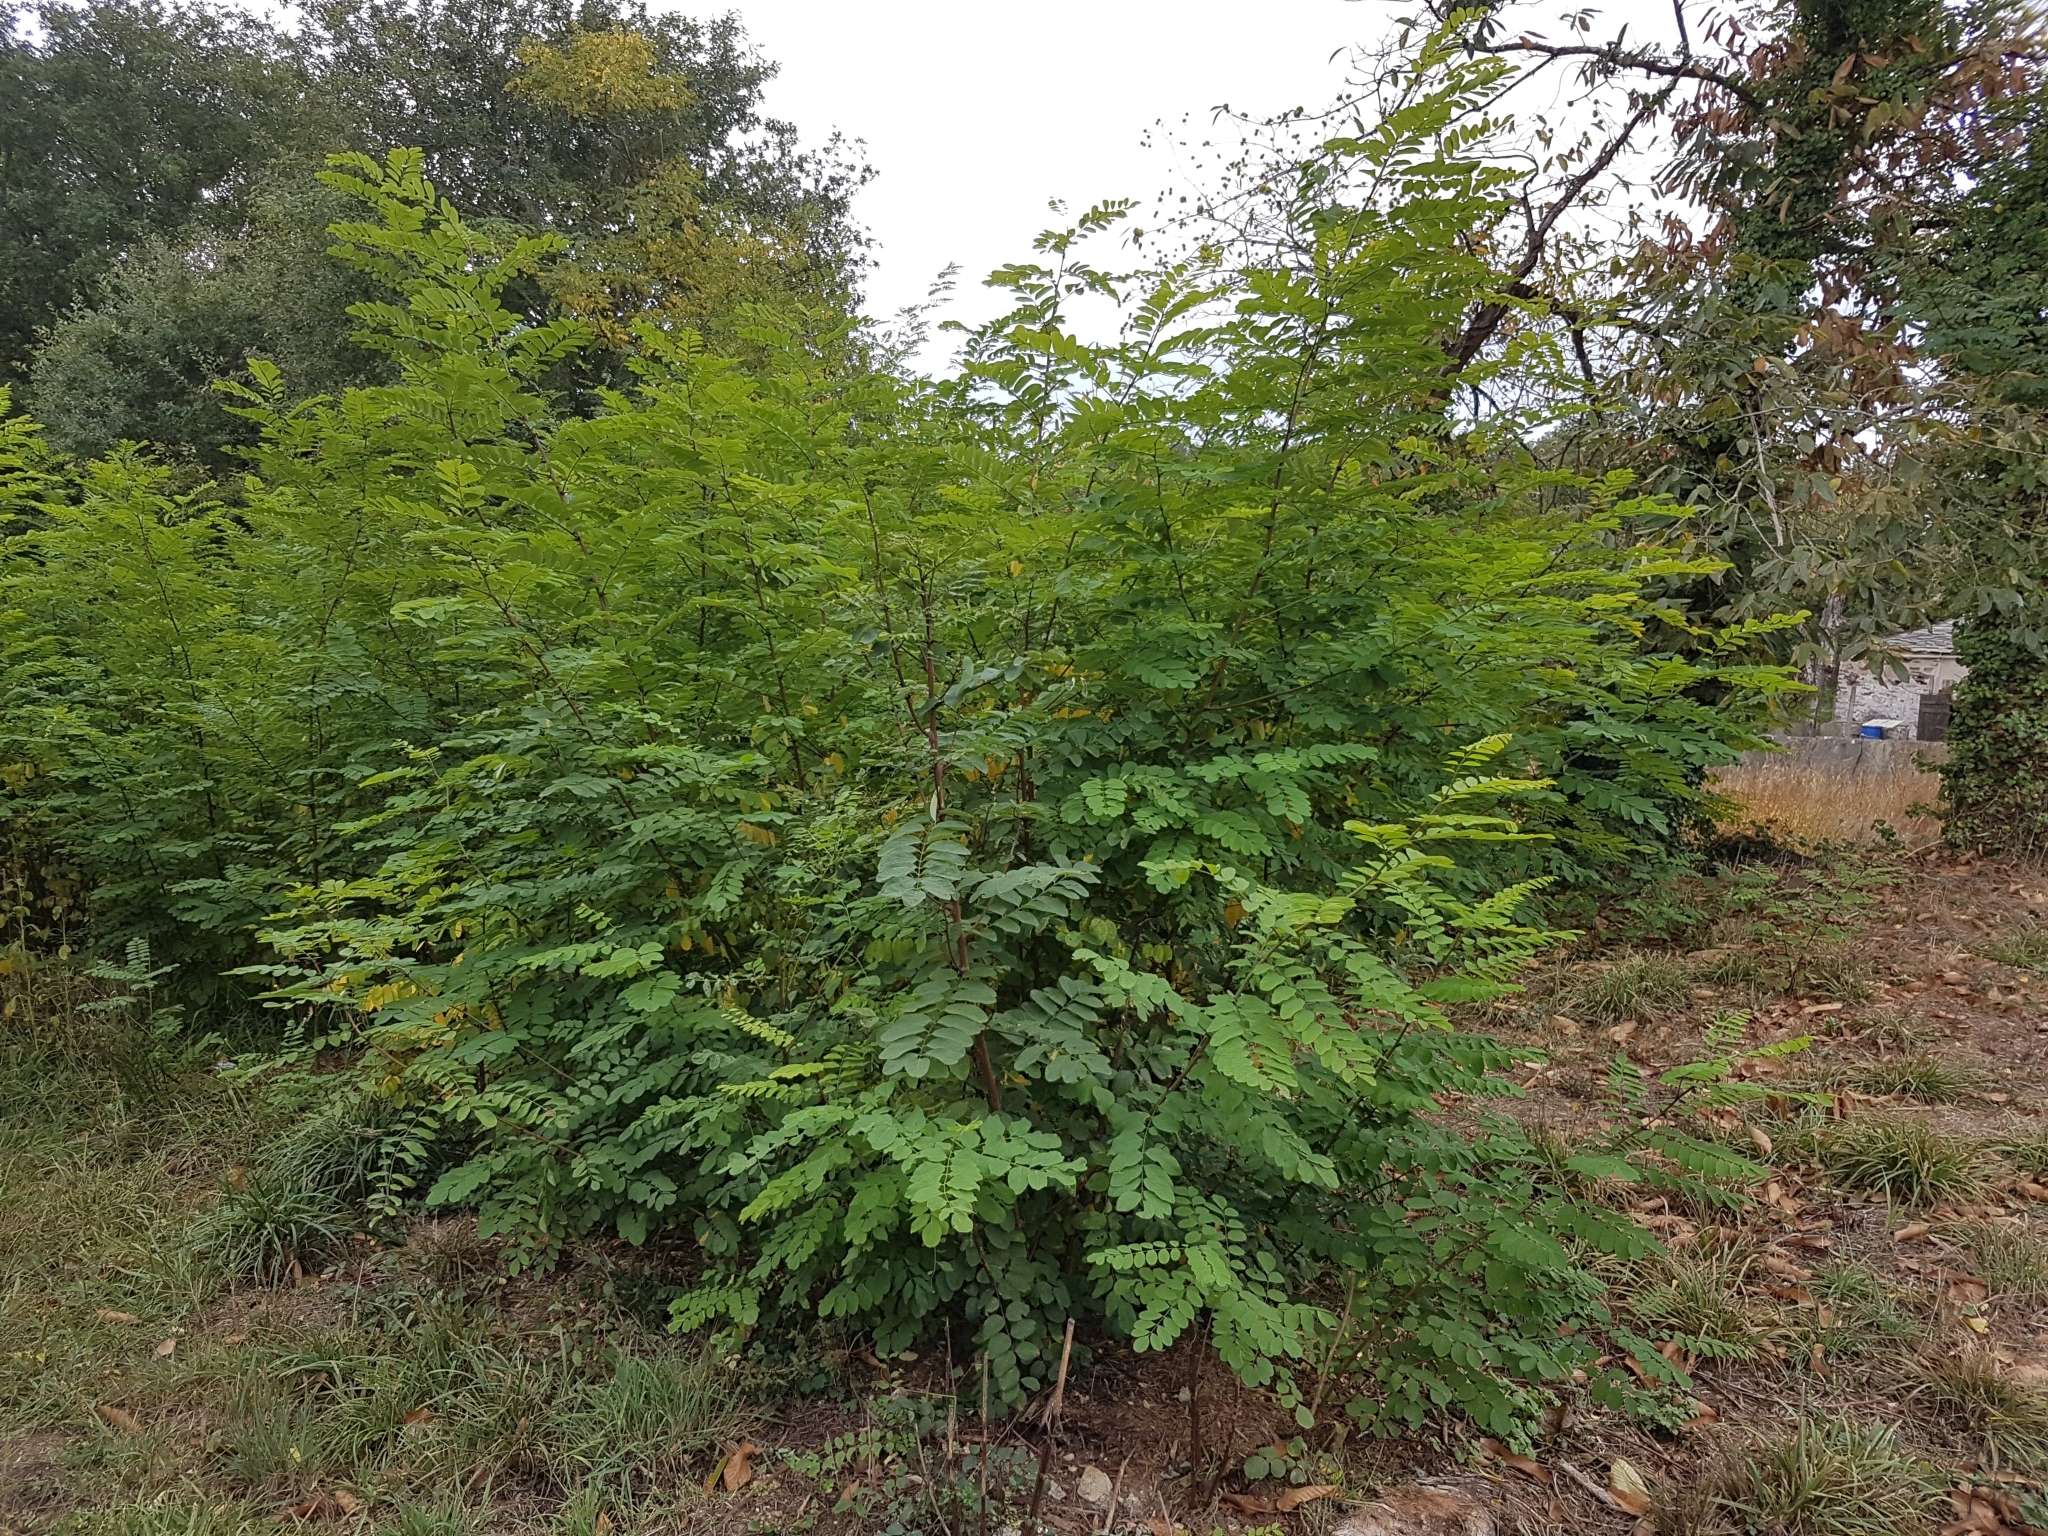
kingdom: Plantae
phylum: Tracheophyta
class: Magnoliopsida
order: Fabales
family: Fabaceae
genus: Robinia
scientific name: Robinia pseudoacacia
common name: Black locust
